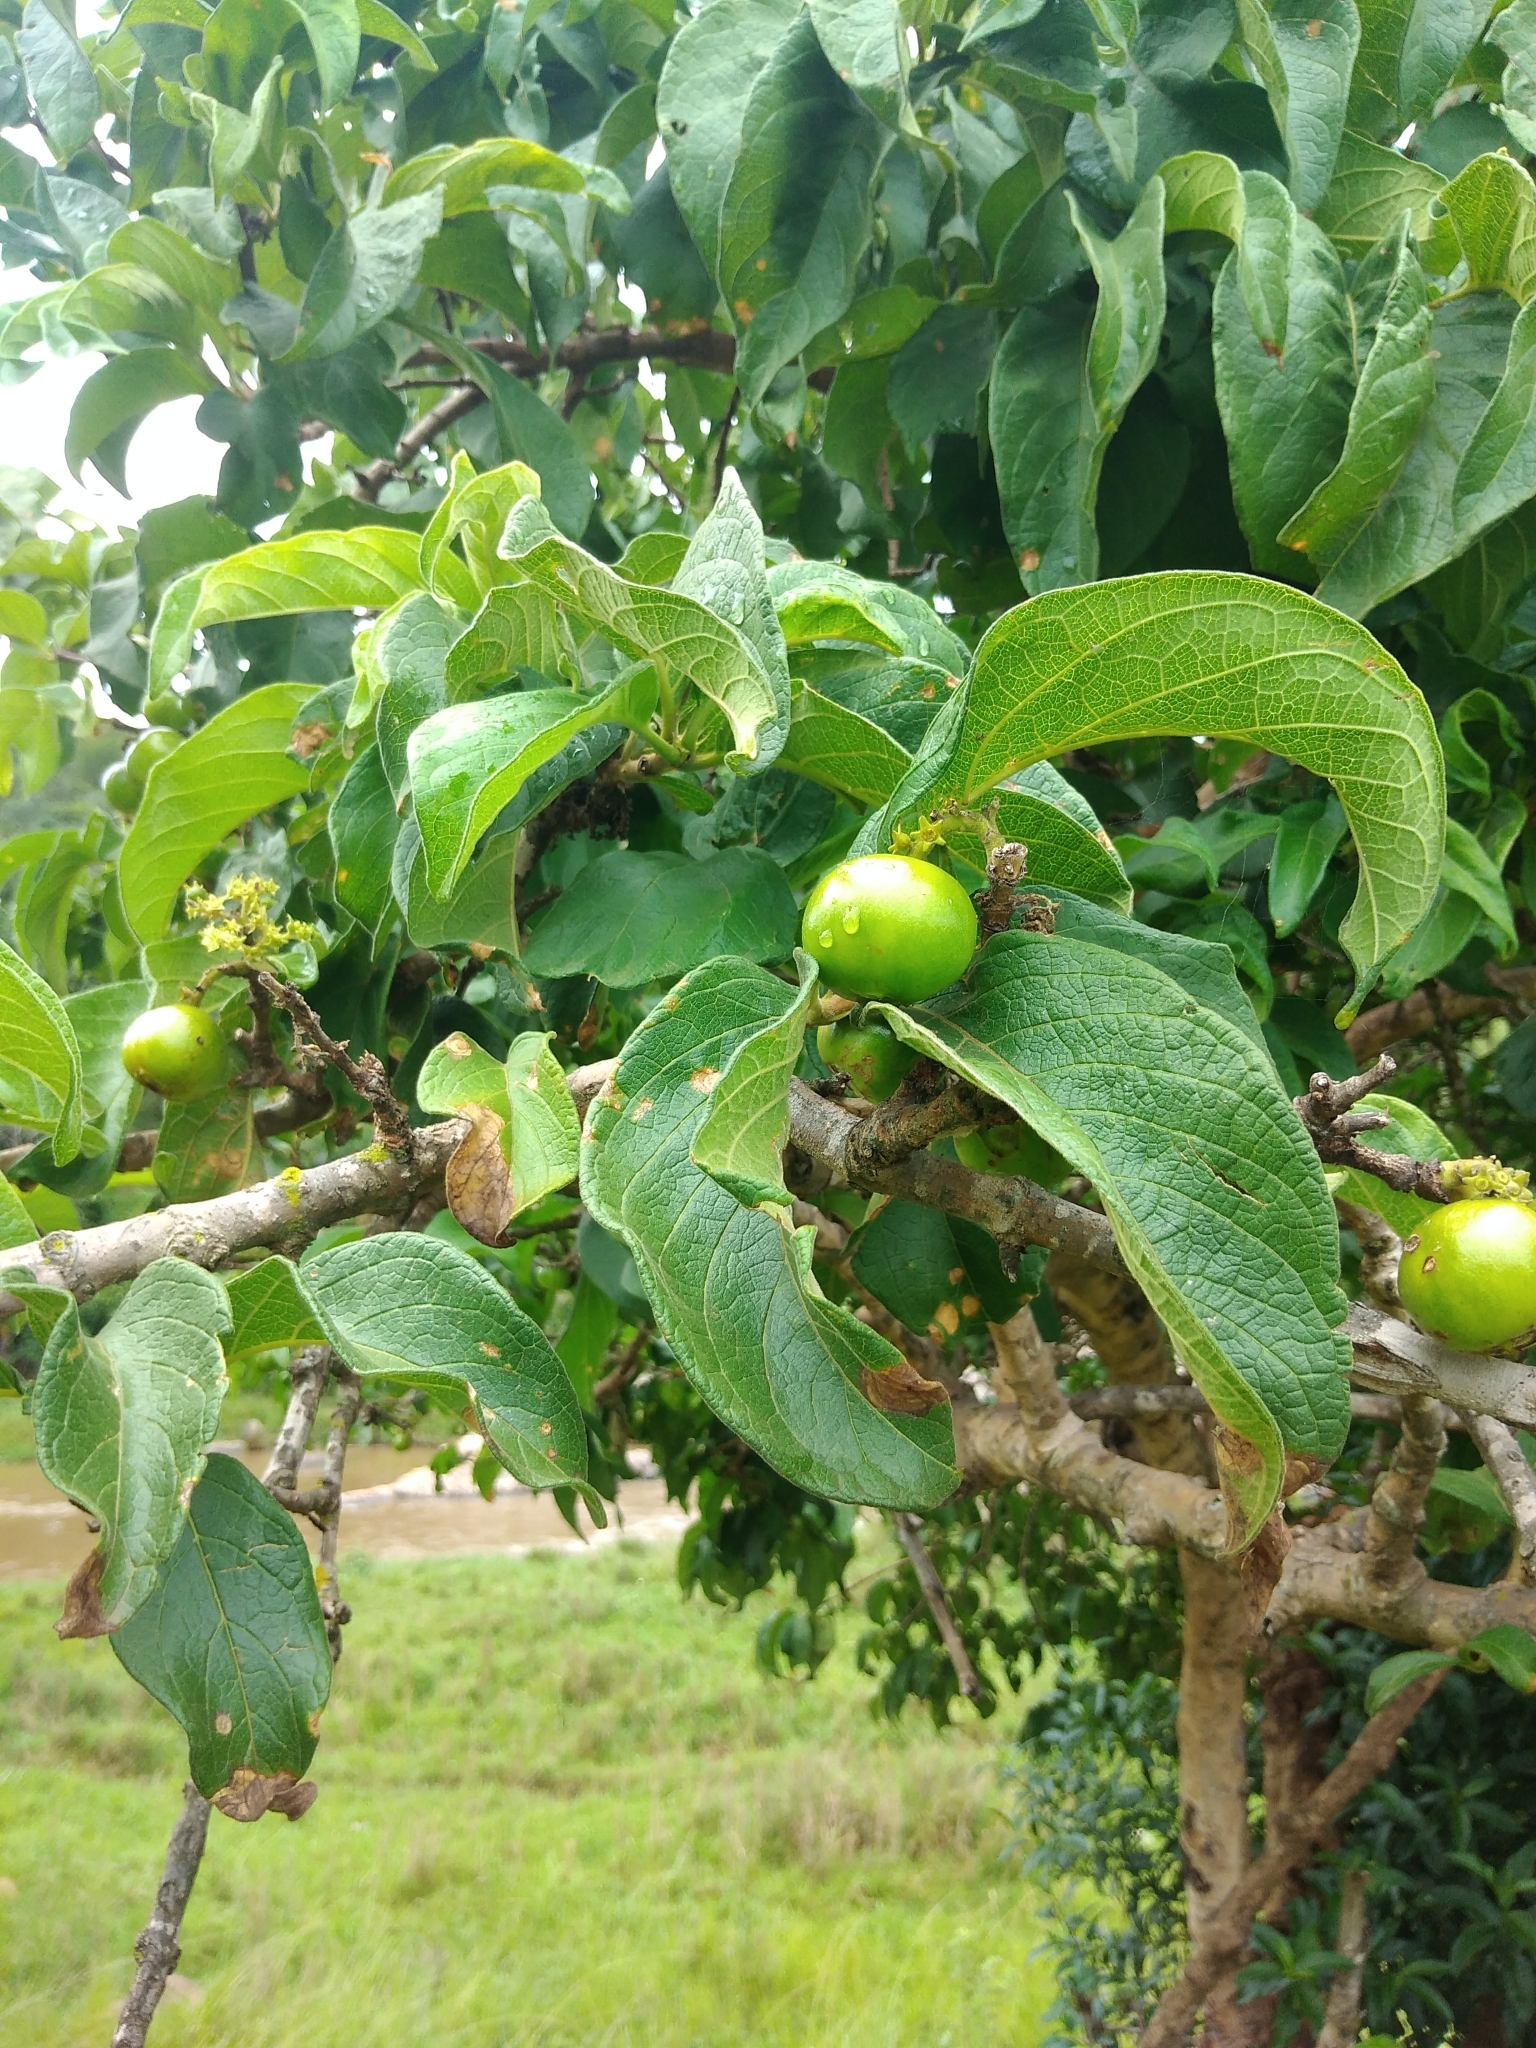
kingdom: Plantae
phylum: Tracheophyta
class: Magnoliopsida
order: Gentianales
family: Rubiaceae
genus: Vangueria
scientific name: Vangueria infausta
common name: Medlar
